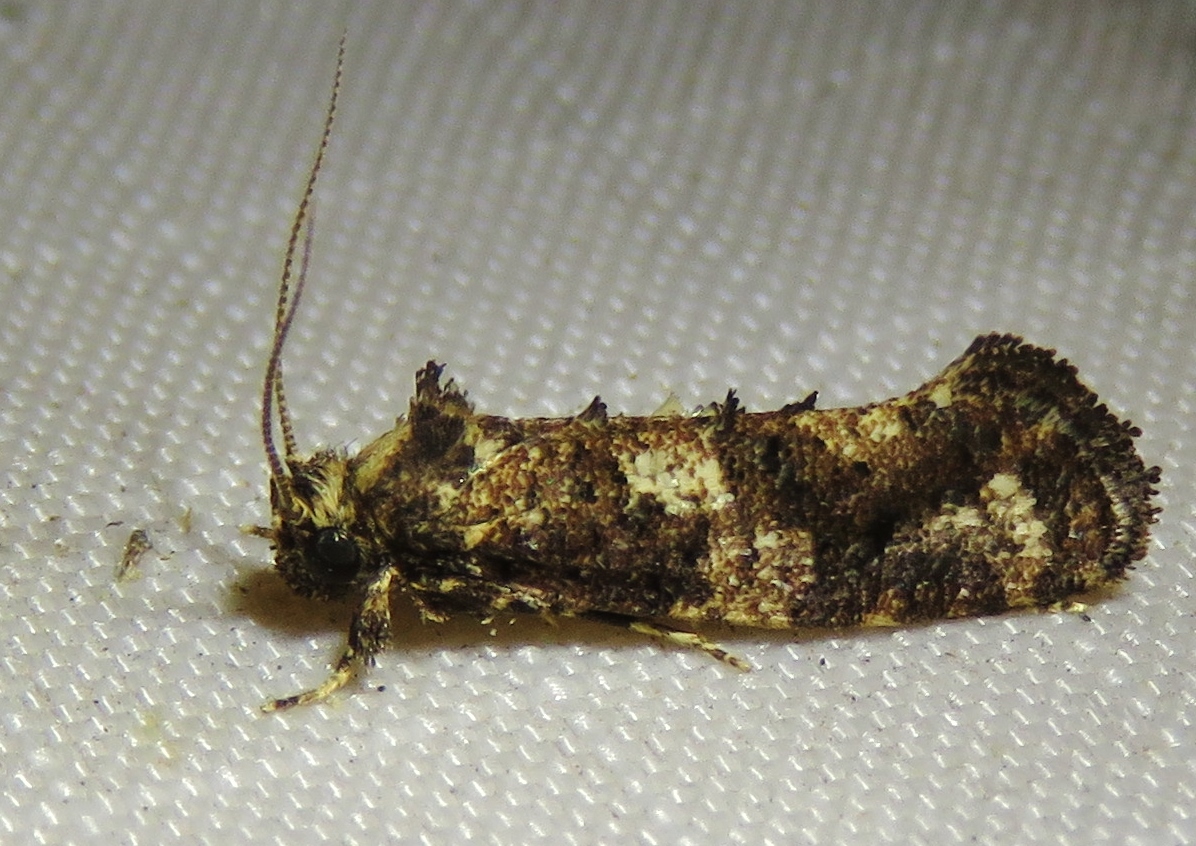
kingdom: Animalia
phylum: Arthropoda
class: Insecta
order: Lepidoptera
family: Tineidae
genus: Acrolophus
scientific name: Acrolophus cressoni
